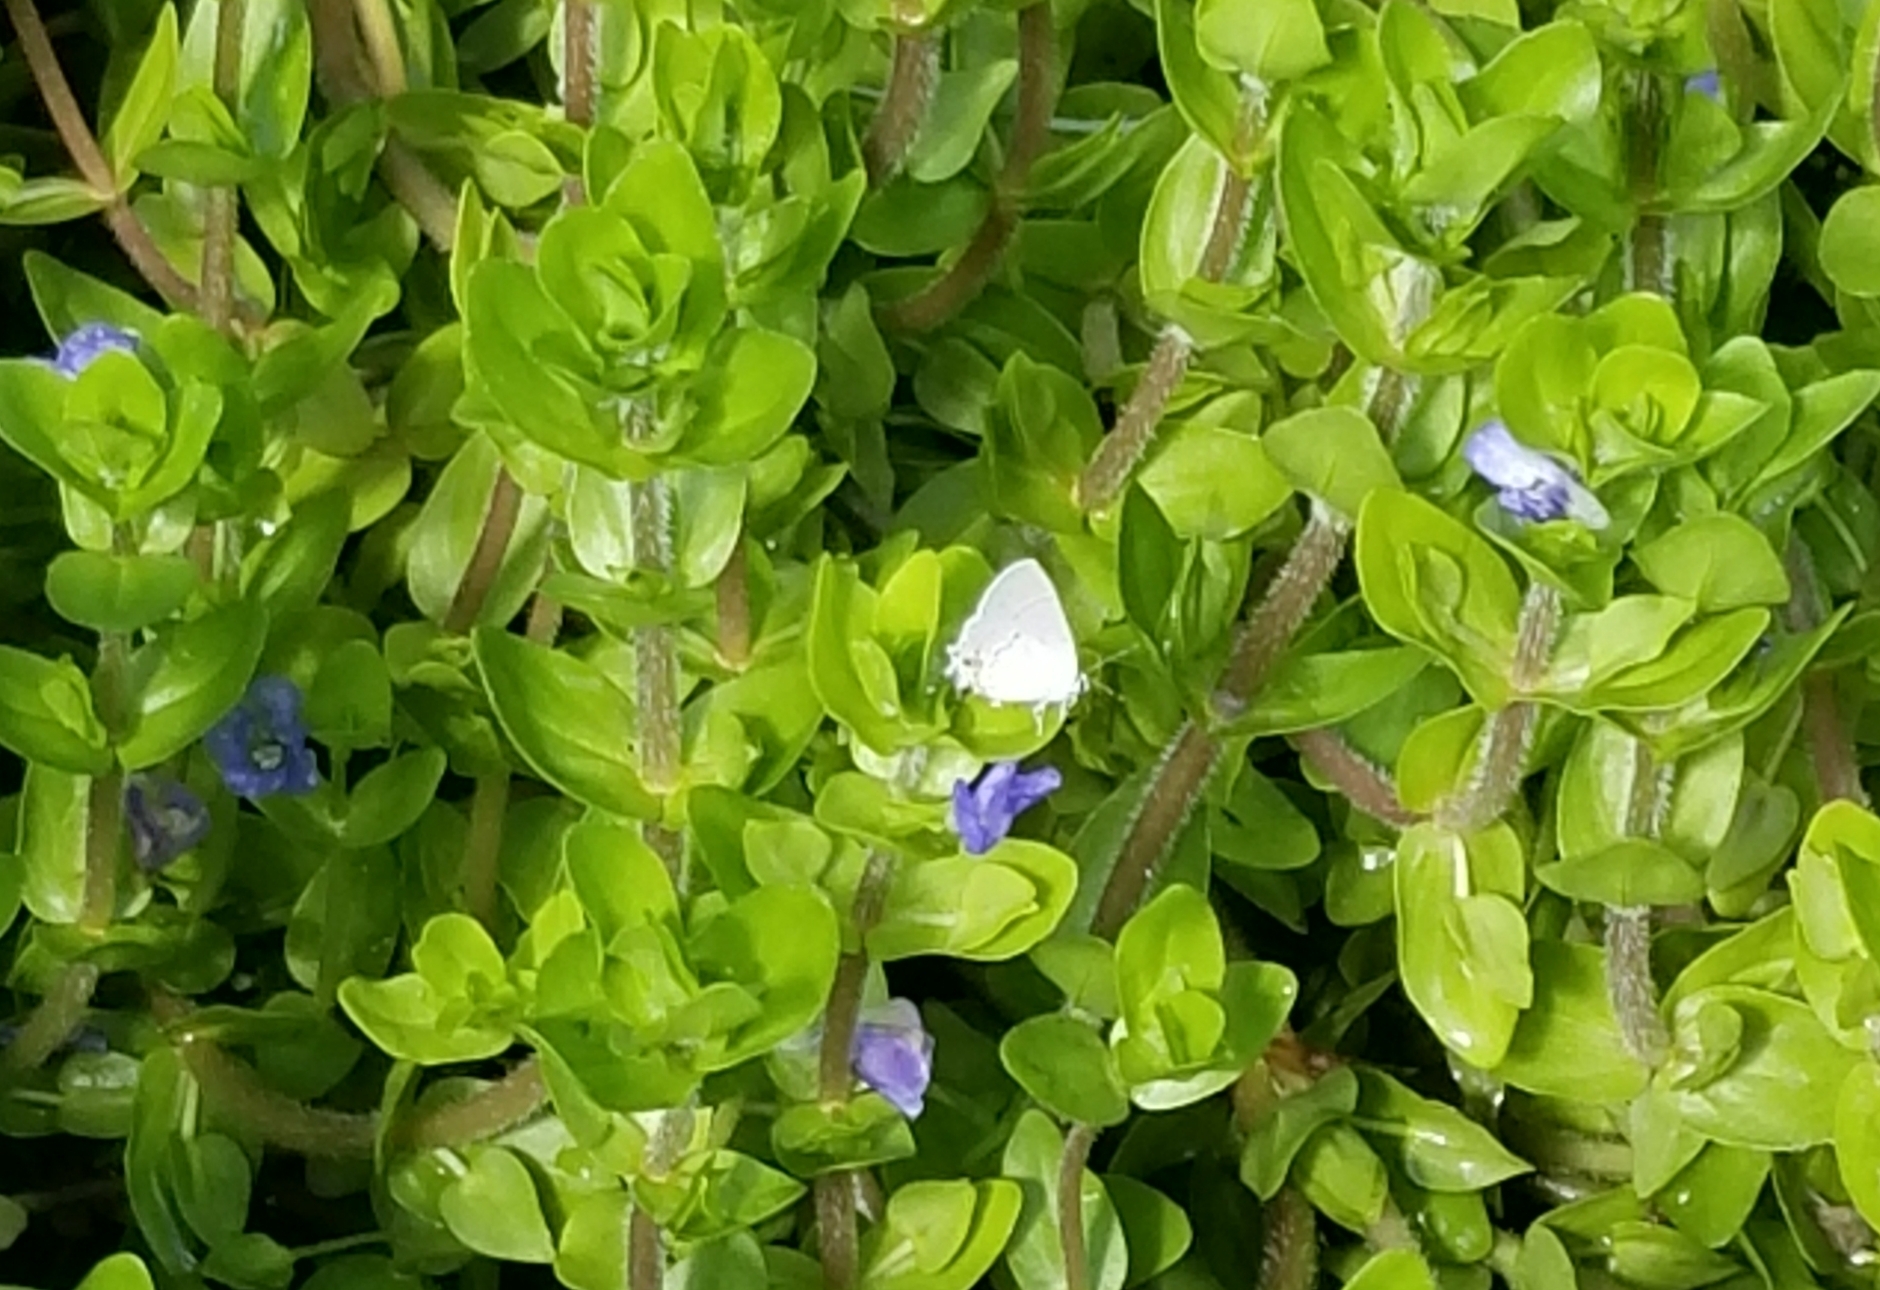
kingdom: Animalia
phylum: Arthropoda
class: Insecta
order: Lepidoptera
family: Lycaenidae
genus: Strymon
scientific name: Strymon melinus
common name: Gray hairstreak
